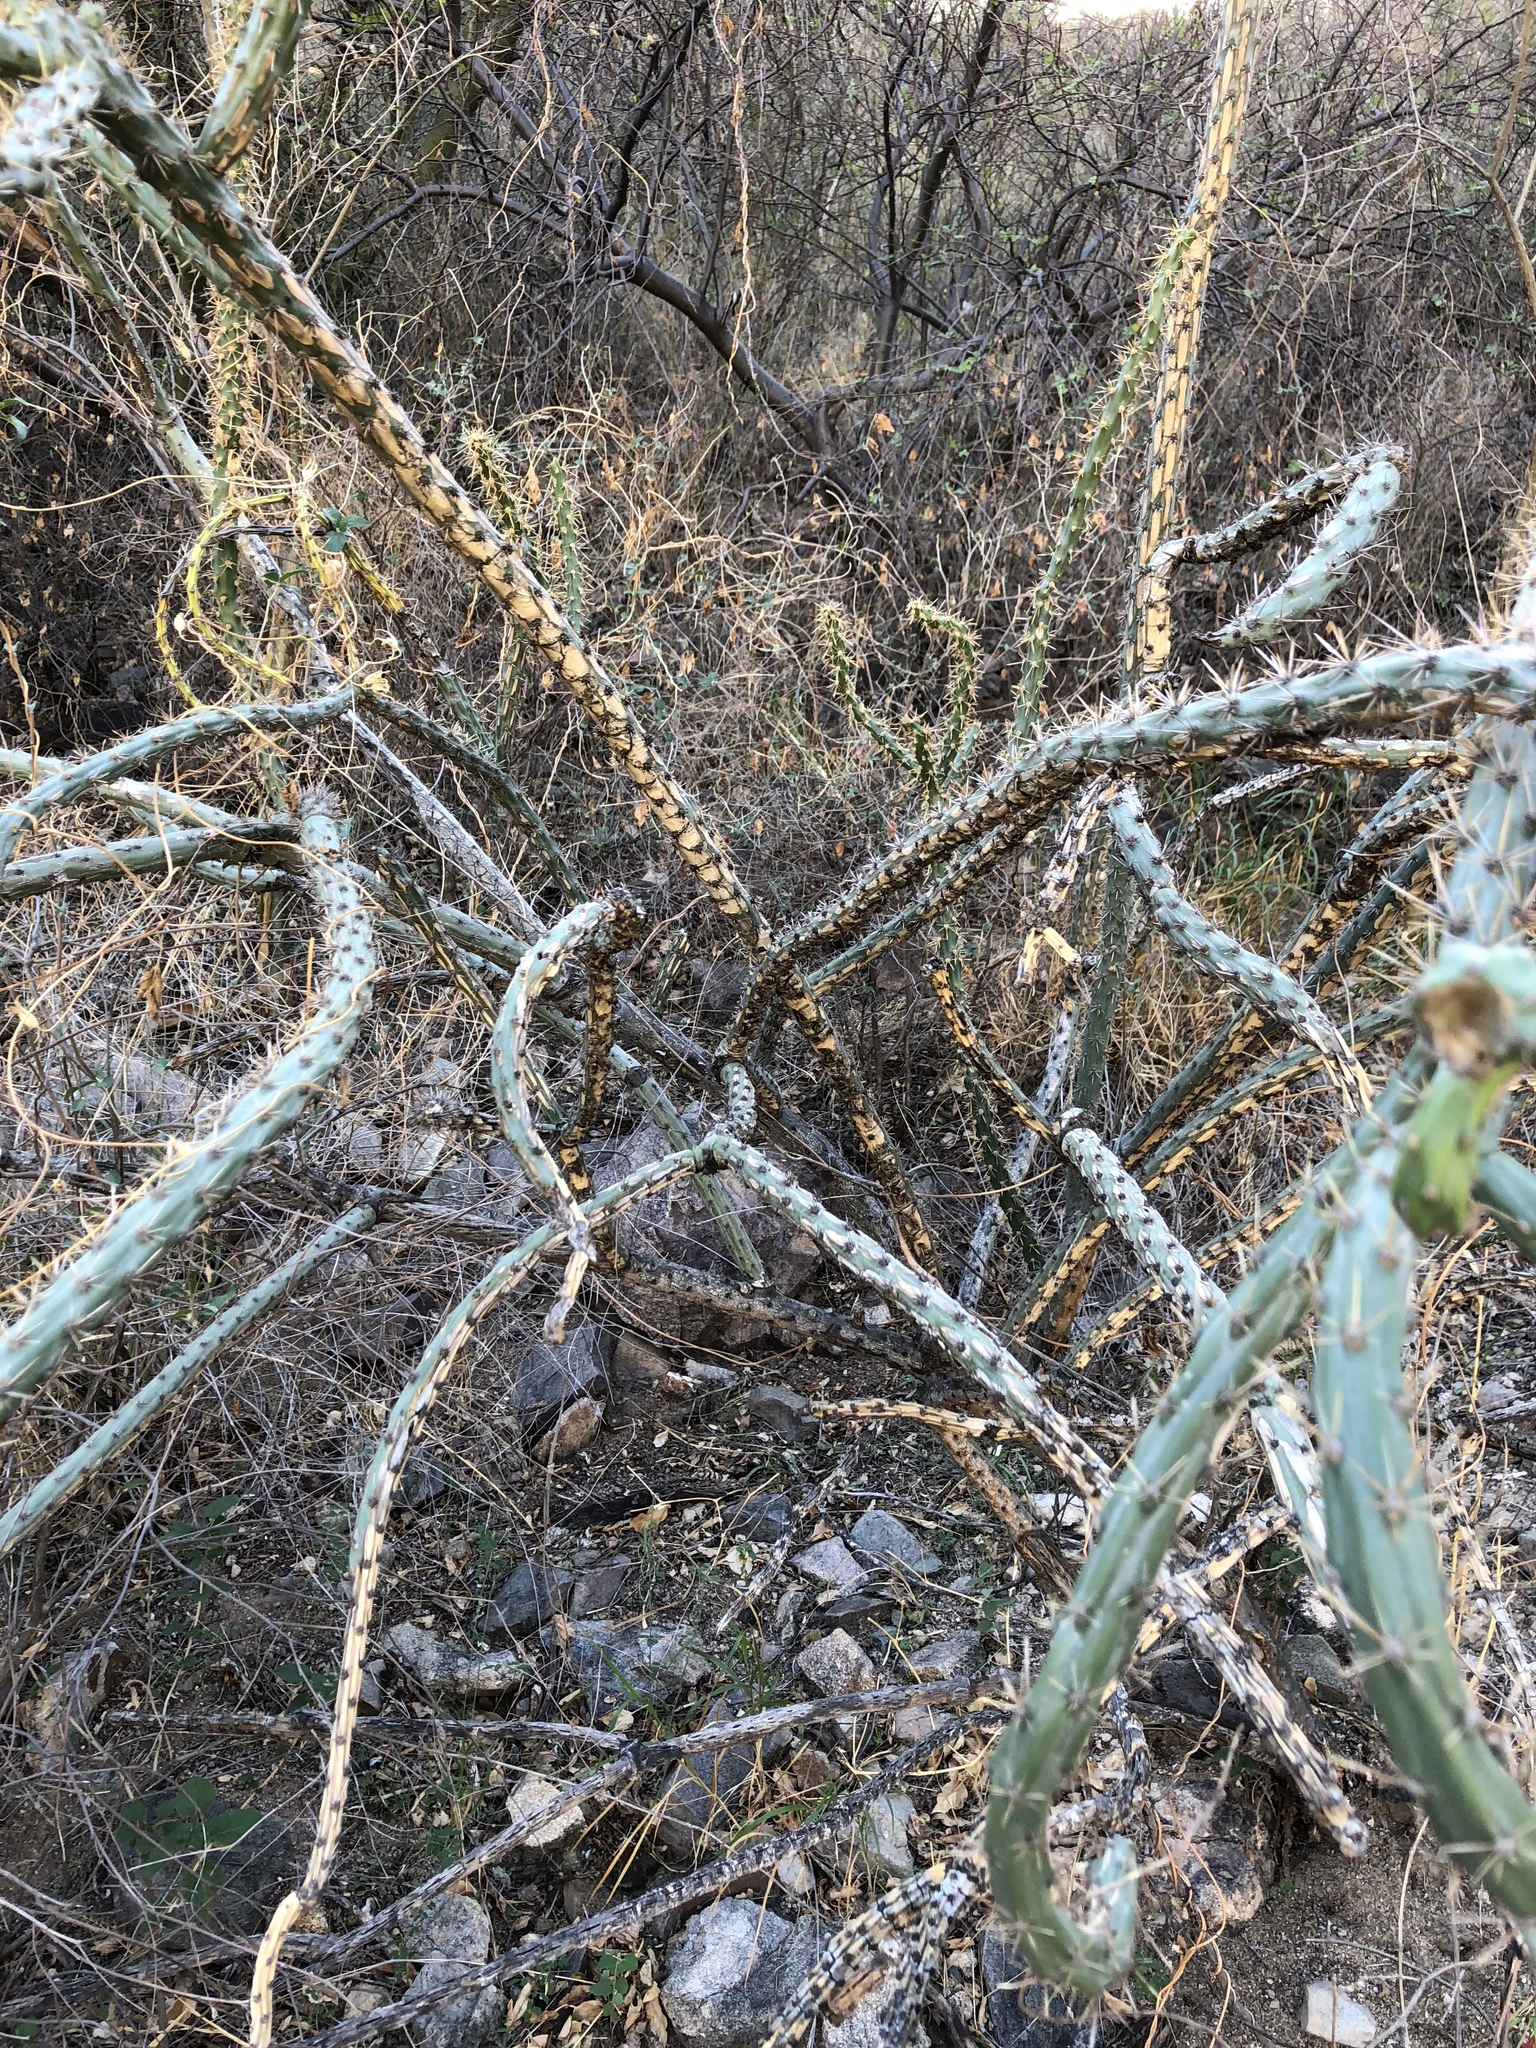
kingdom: Plantae
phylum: Tracheophyta
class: Magnoliopsida
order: Caryophyllales
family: Cactaceae
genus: Cylindropuntia
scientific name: Cylindropuntia thurberi
